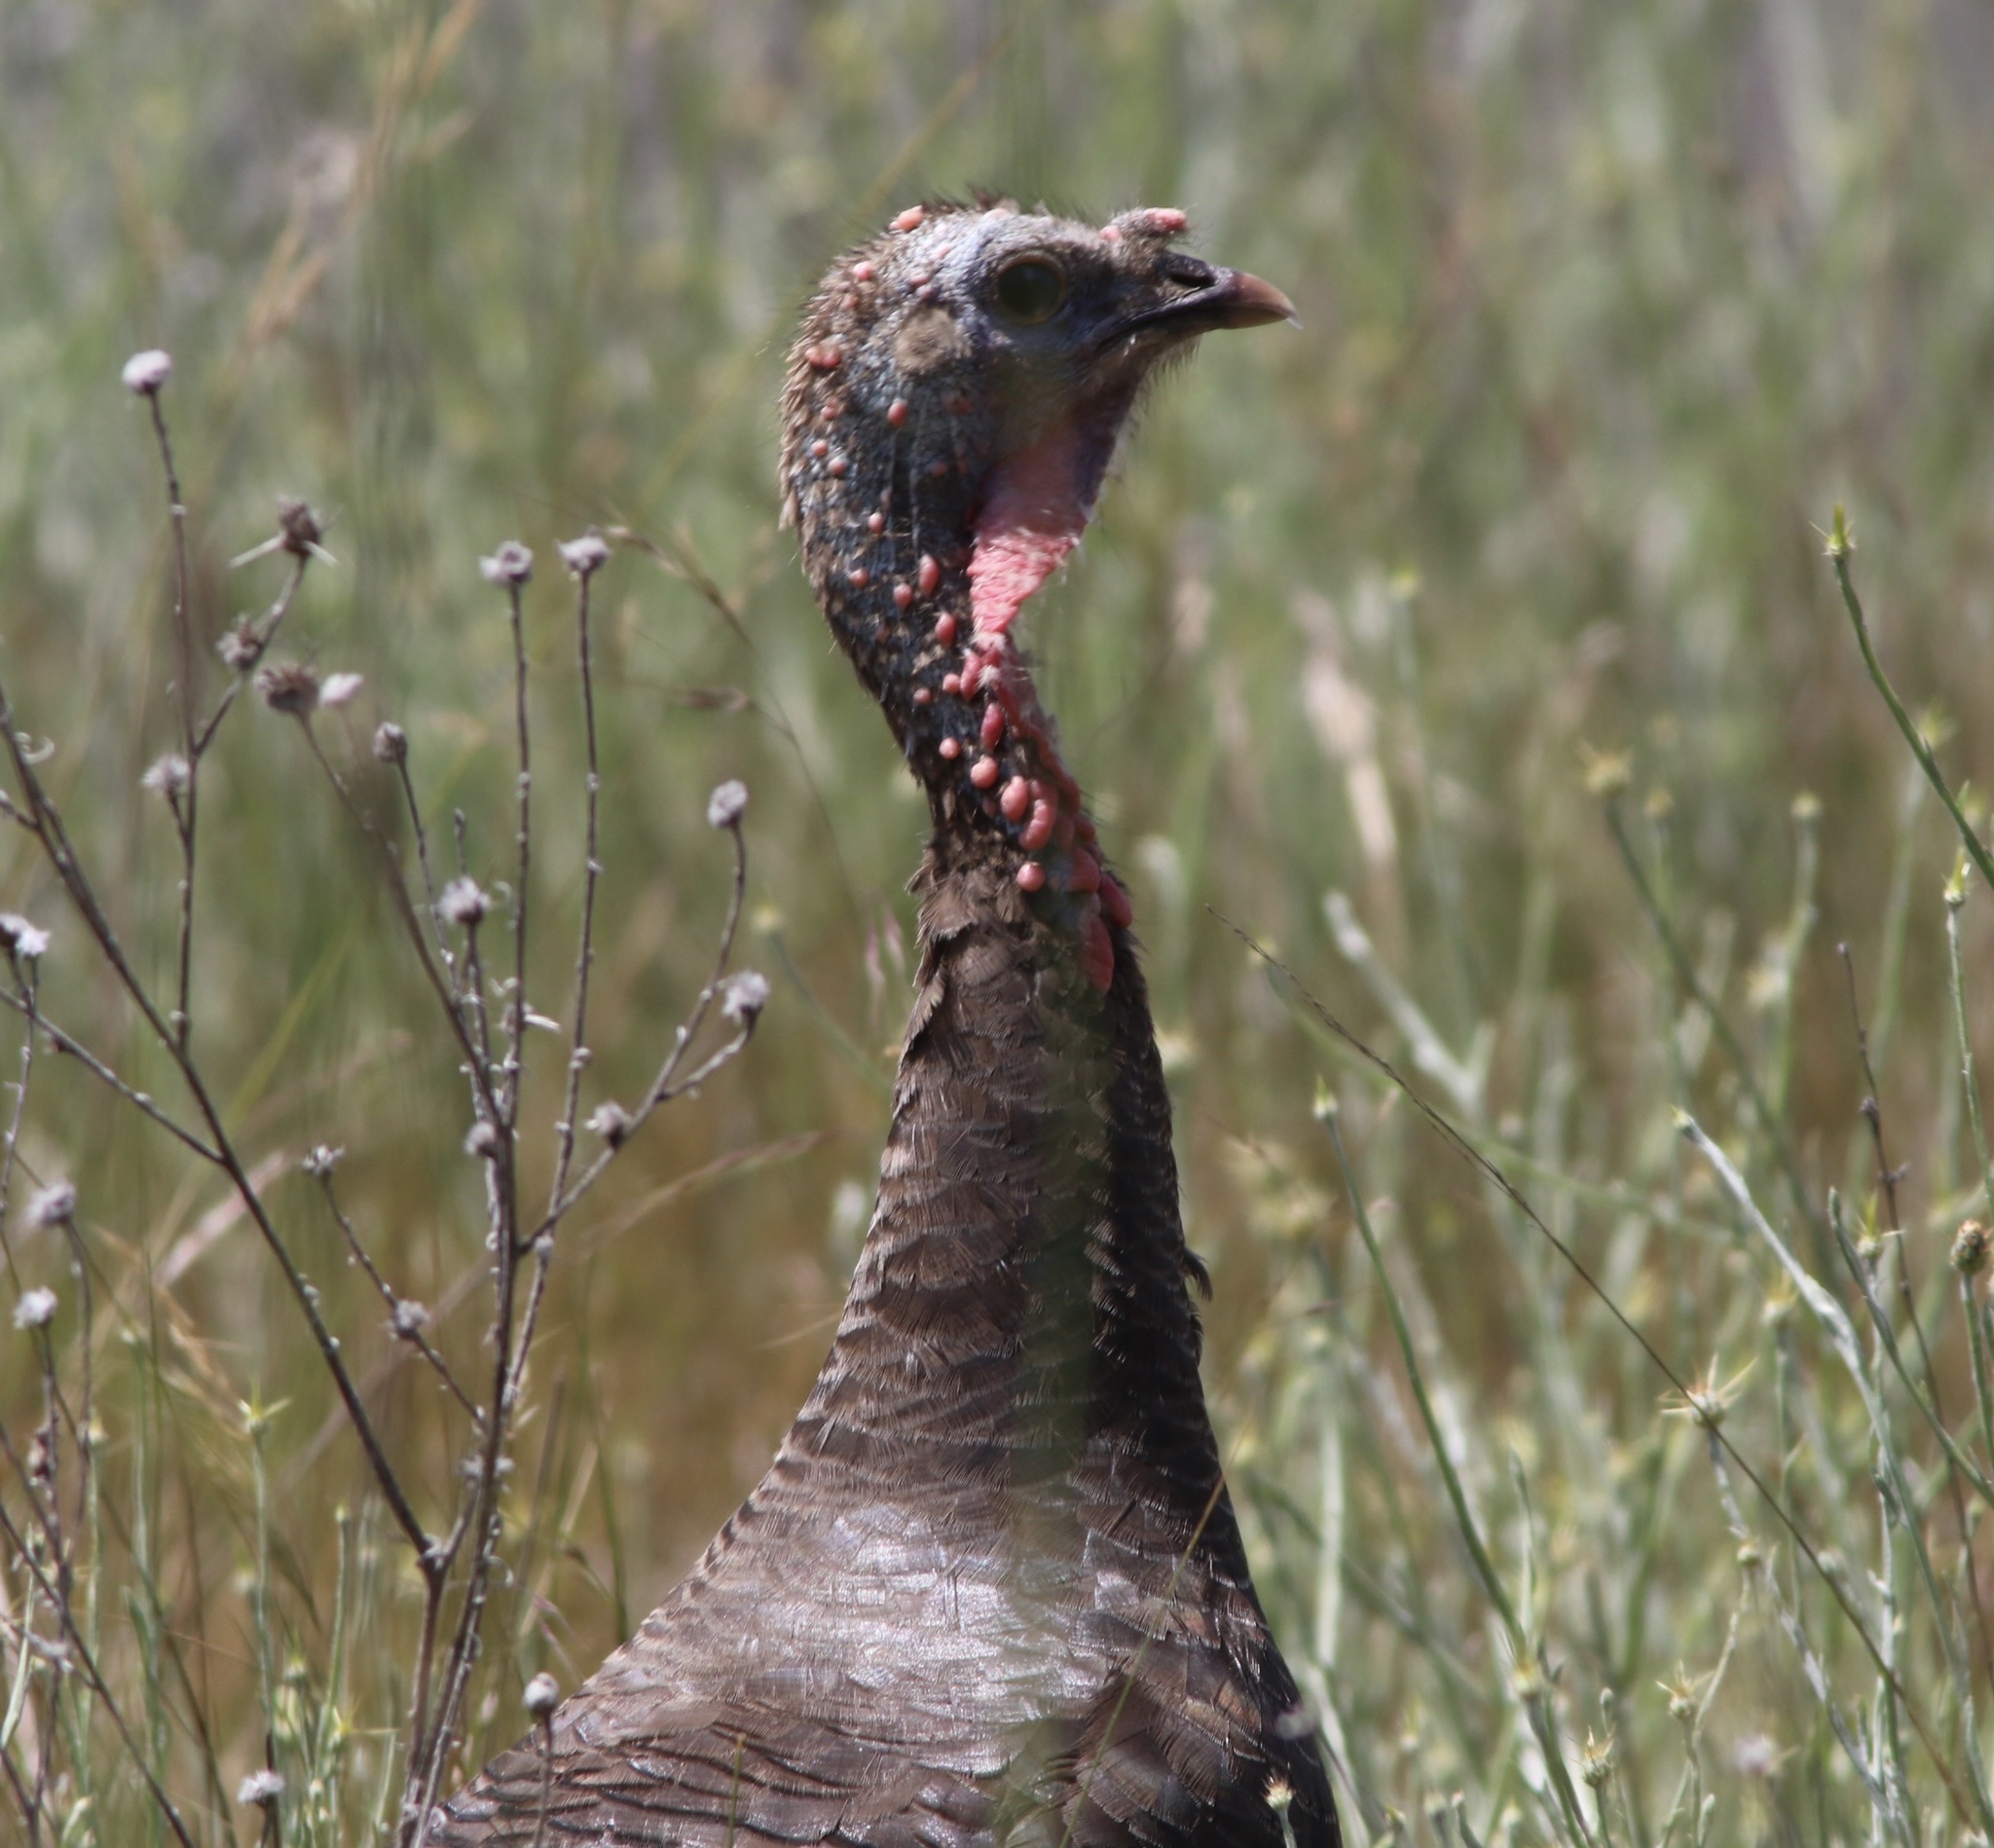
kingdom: Animalia
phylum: Chordata
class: Aves
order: Galliformes
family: Phasianidae
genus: Meleagris
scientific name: Meleagris gallopavo
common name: Wild turkey
